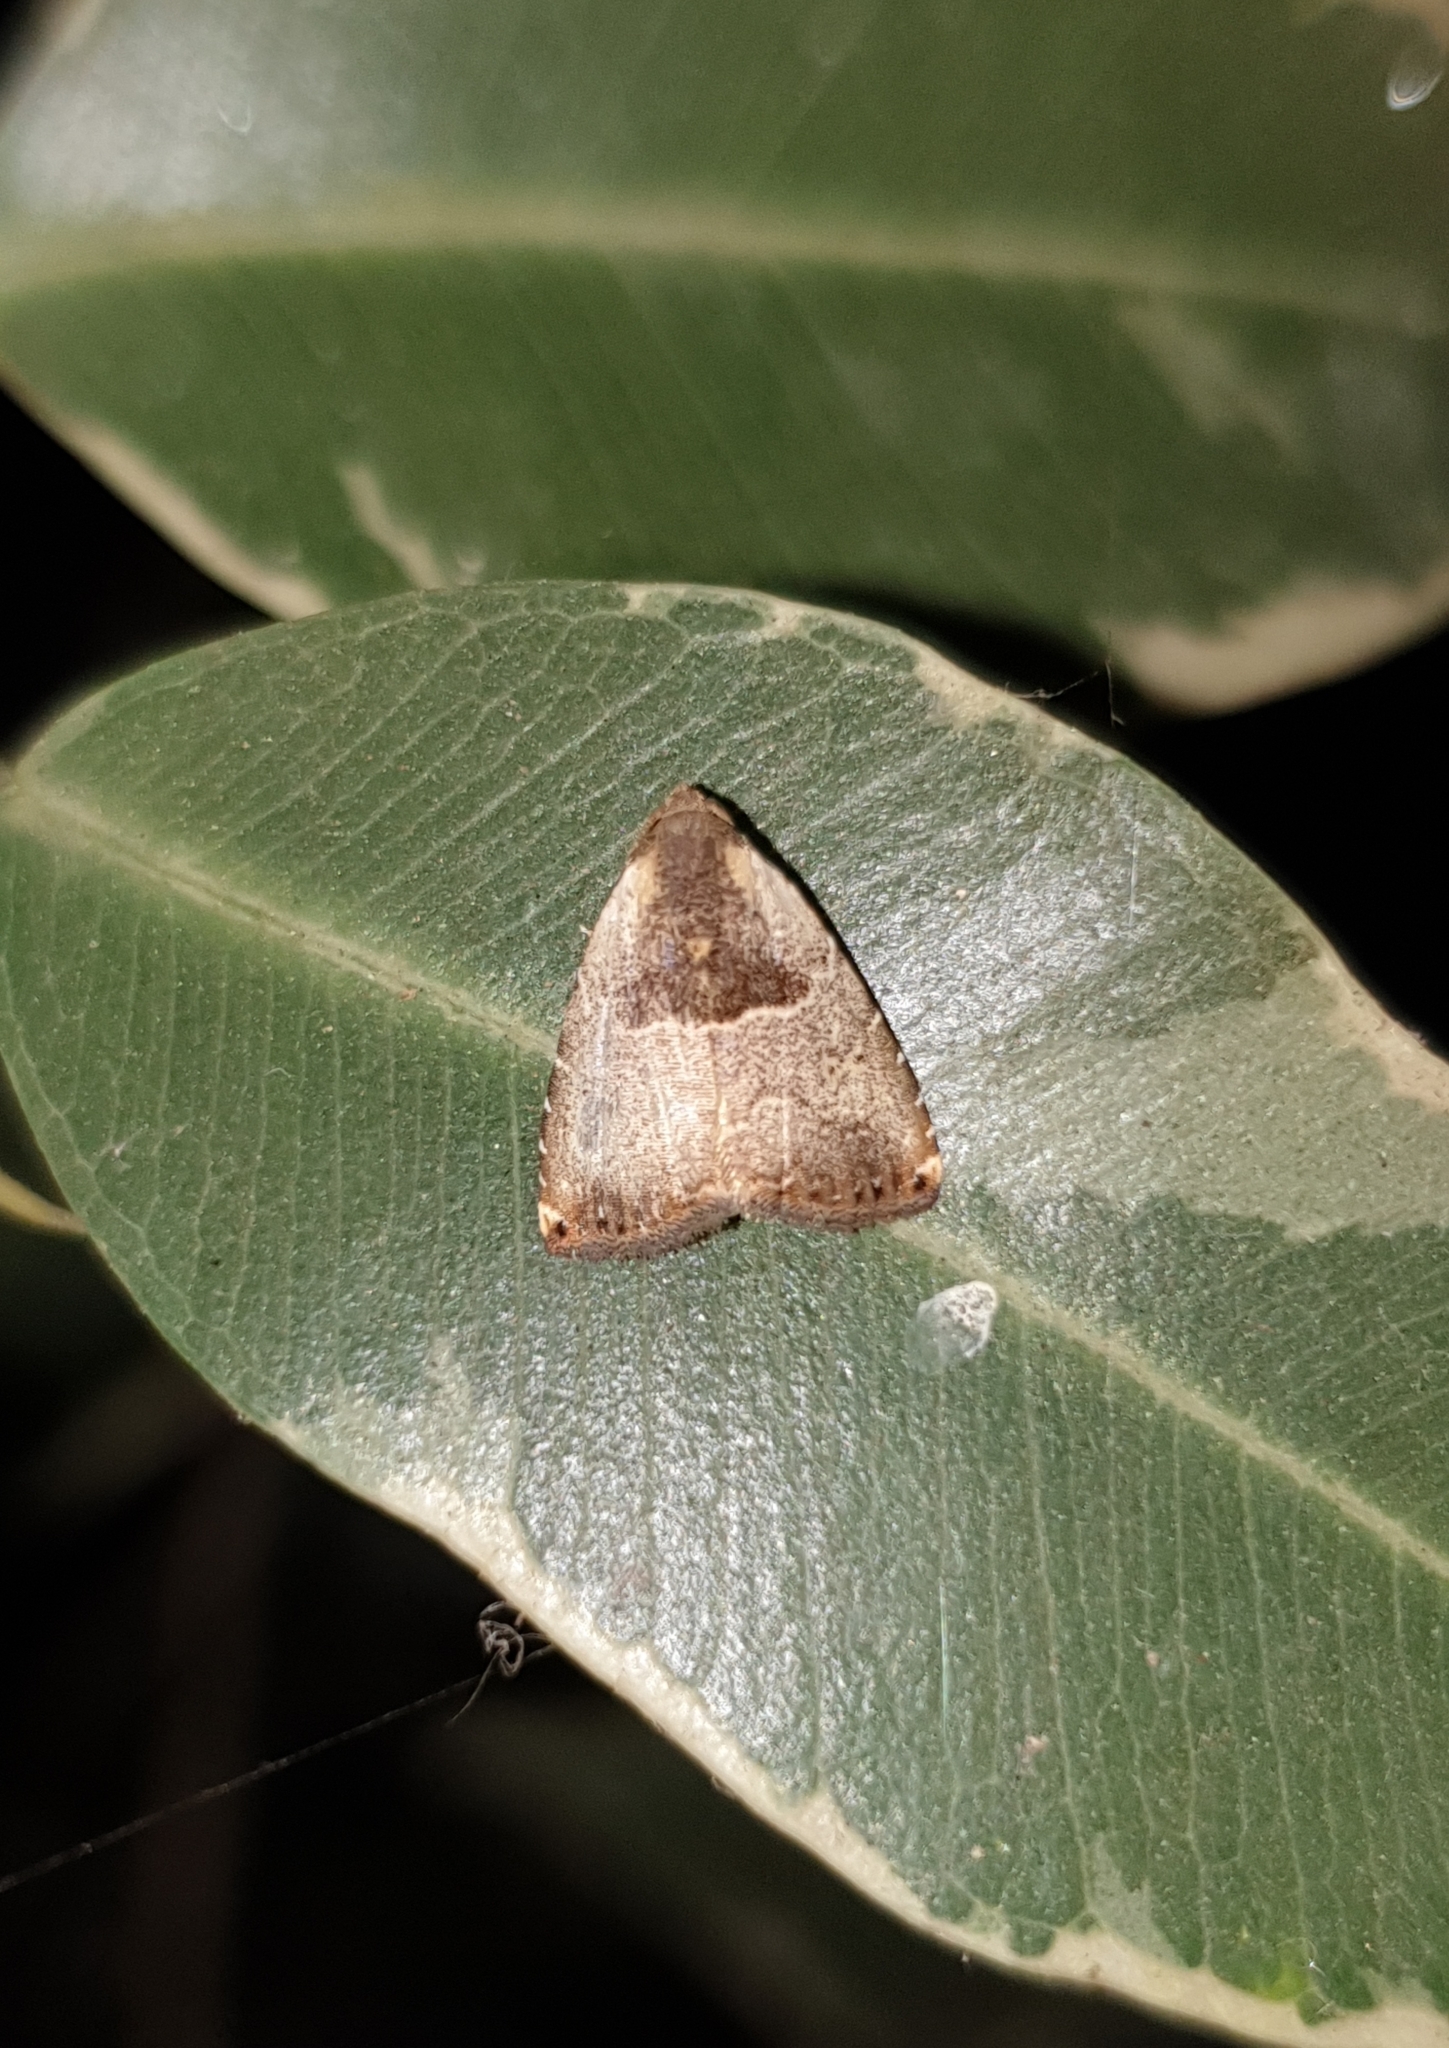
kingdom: Animalia
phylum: Arthropoda
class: Insecta
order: Lepidoptera
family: Erebidae
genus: Rivula
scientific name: Rivula basalis
